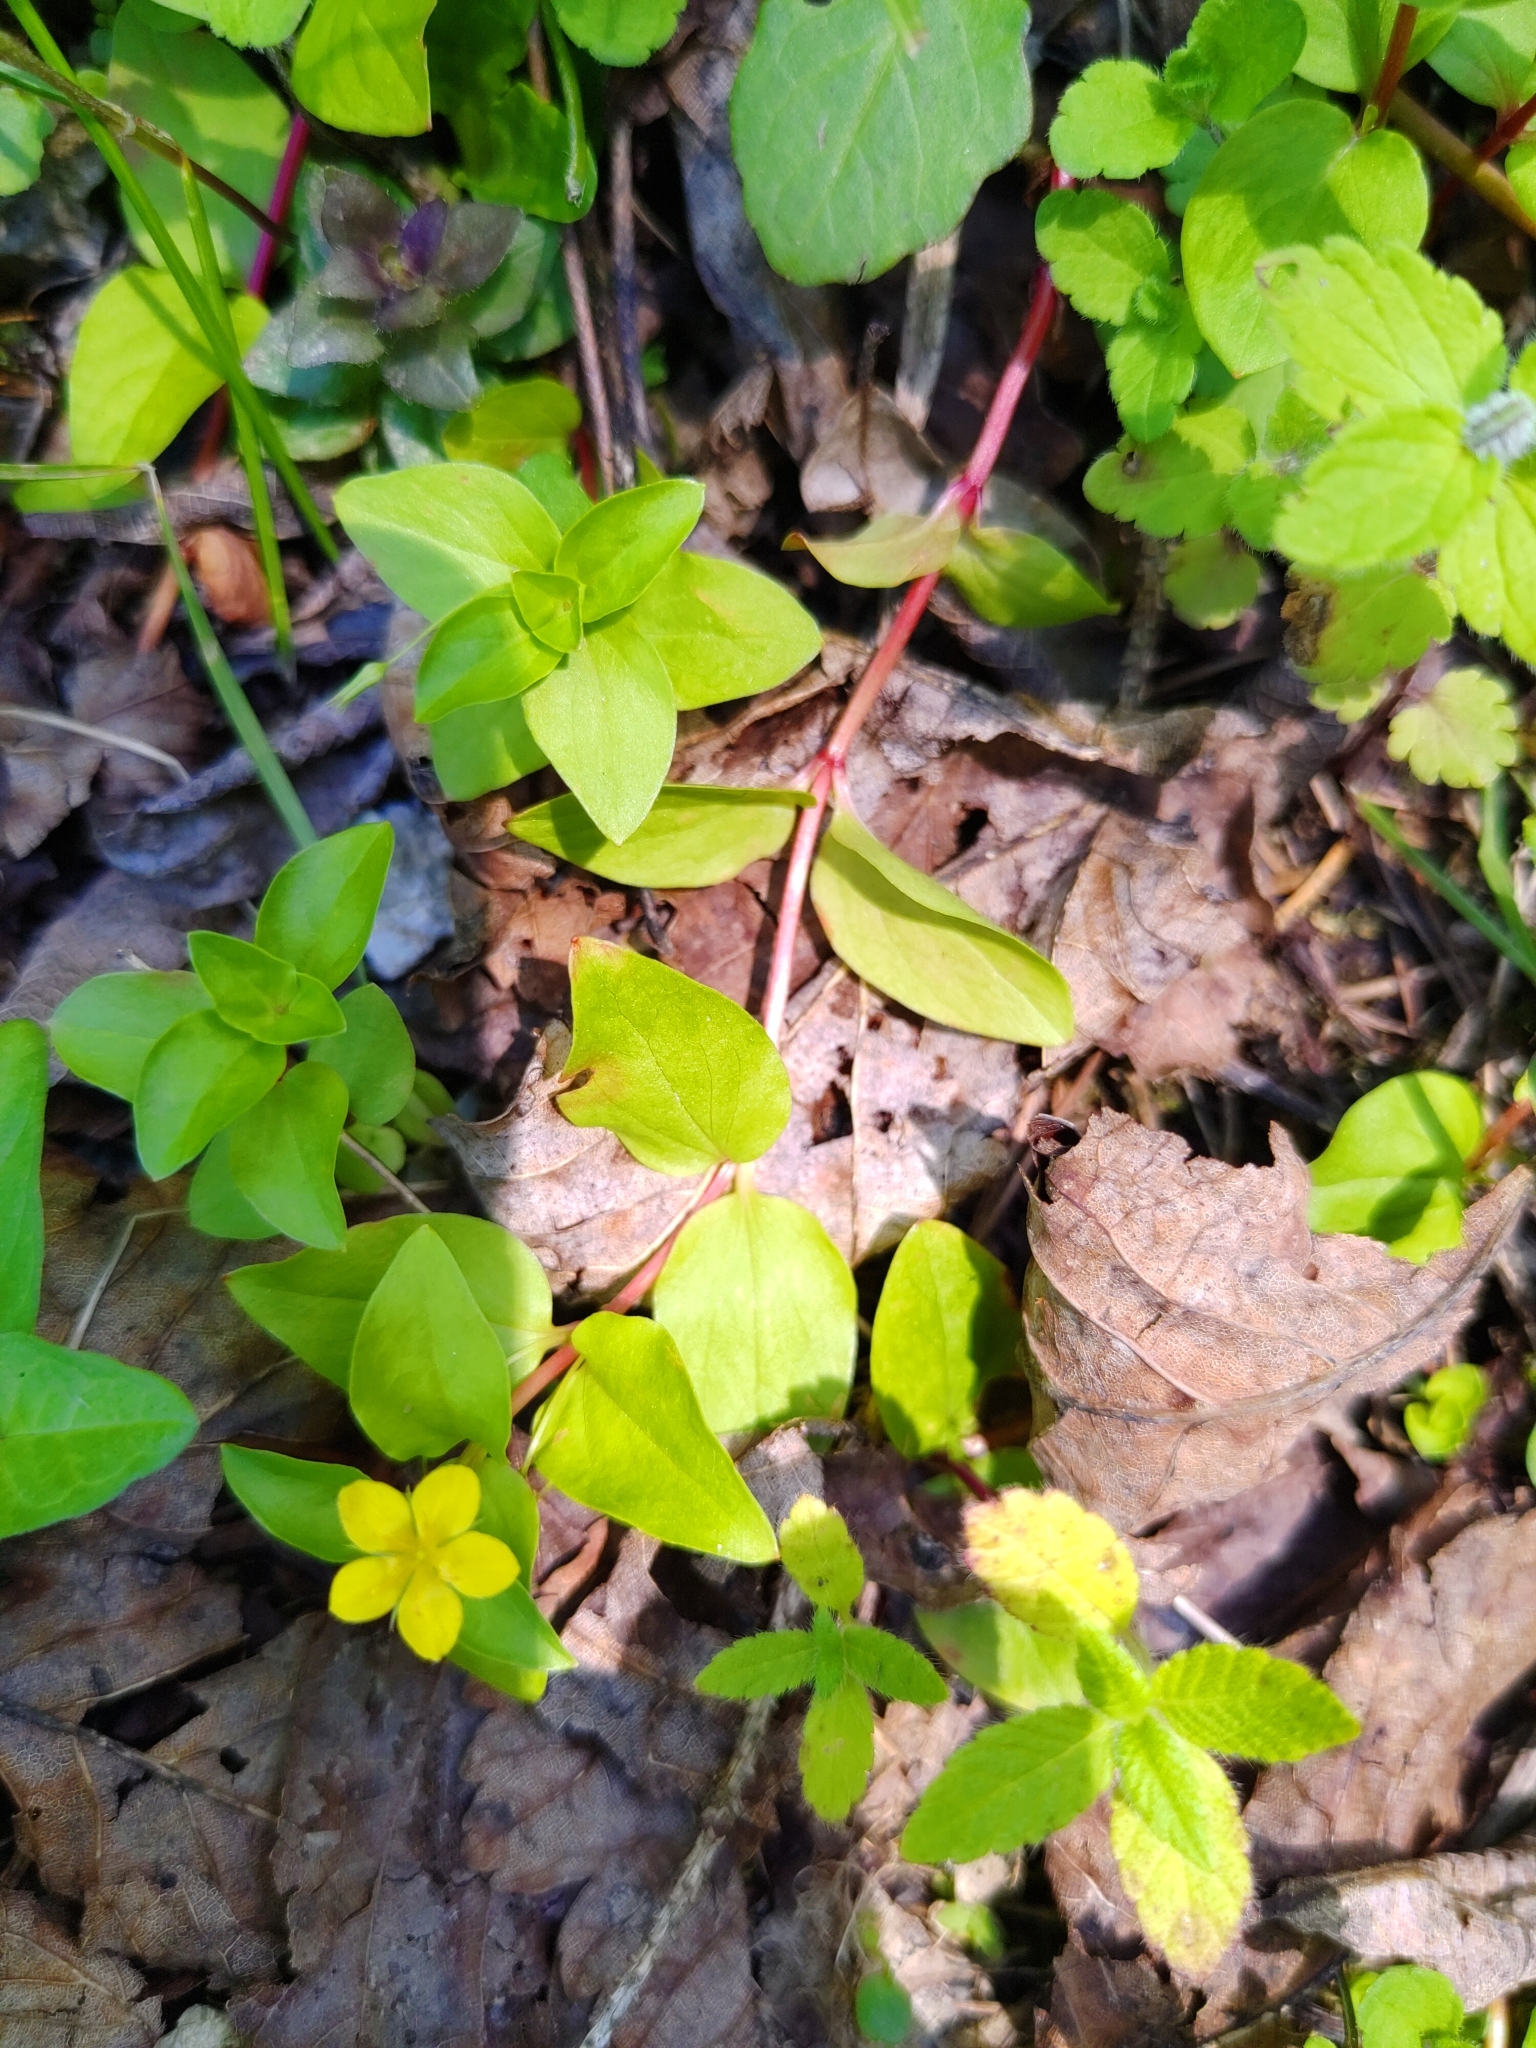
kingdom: Plantae
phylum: Tracheophyta
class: Magnoliopsida
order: Ericales
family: Primulaceae
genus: Lysimachia
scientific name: Lysimachia nemorum
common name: Yellow pimpernel
